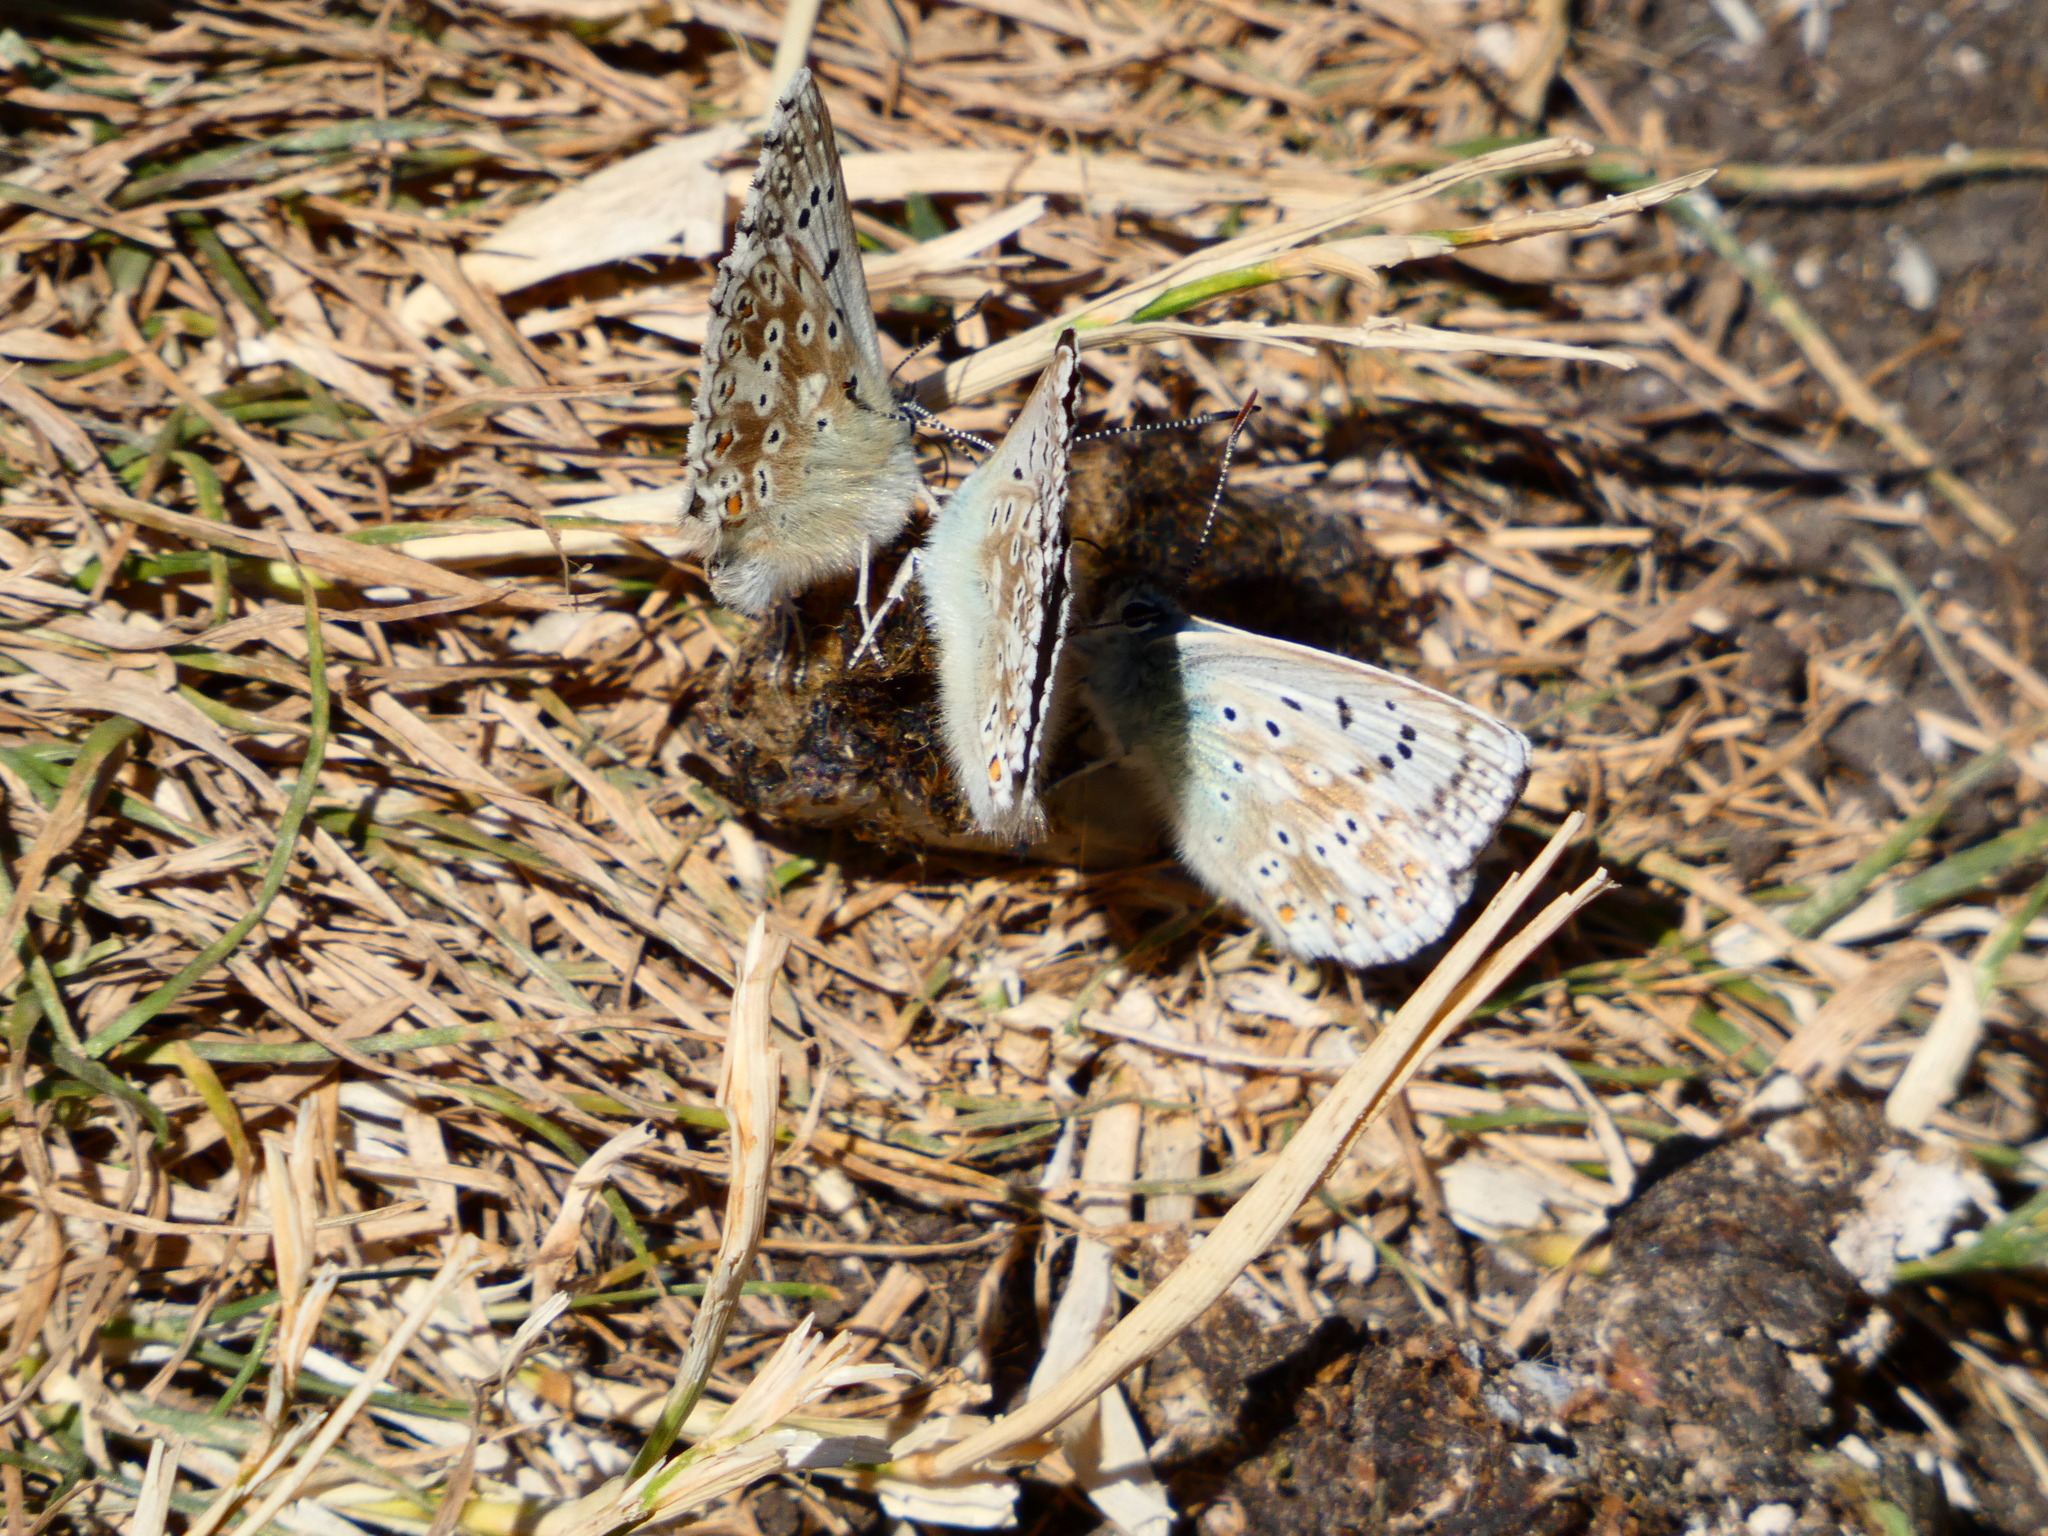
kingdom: Animalia
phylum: Arthropoda
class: Insecta
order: Lepidoptera
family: Lycaenidae
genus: Lysandra
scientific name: Lysandra coridon
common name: Chalkhill blue
